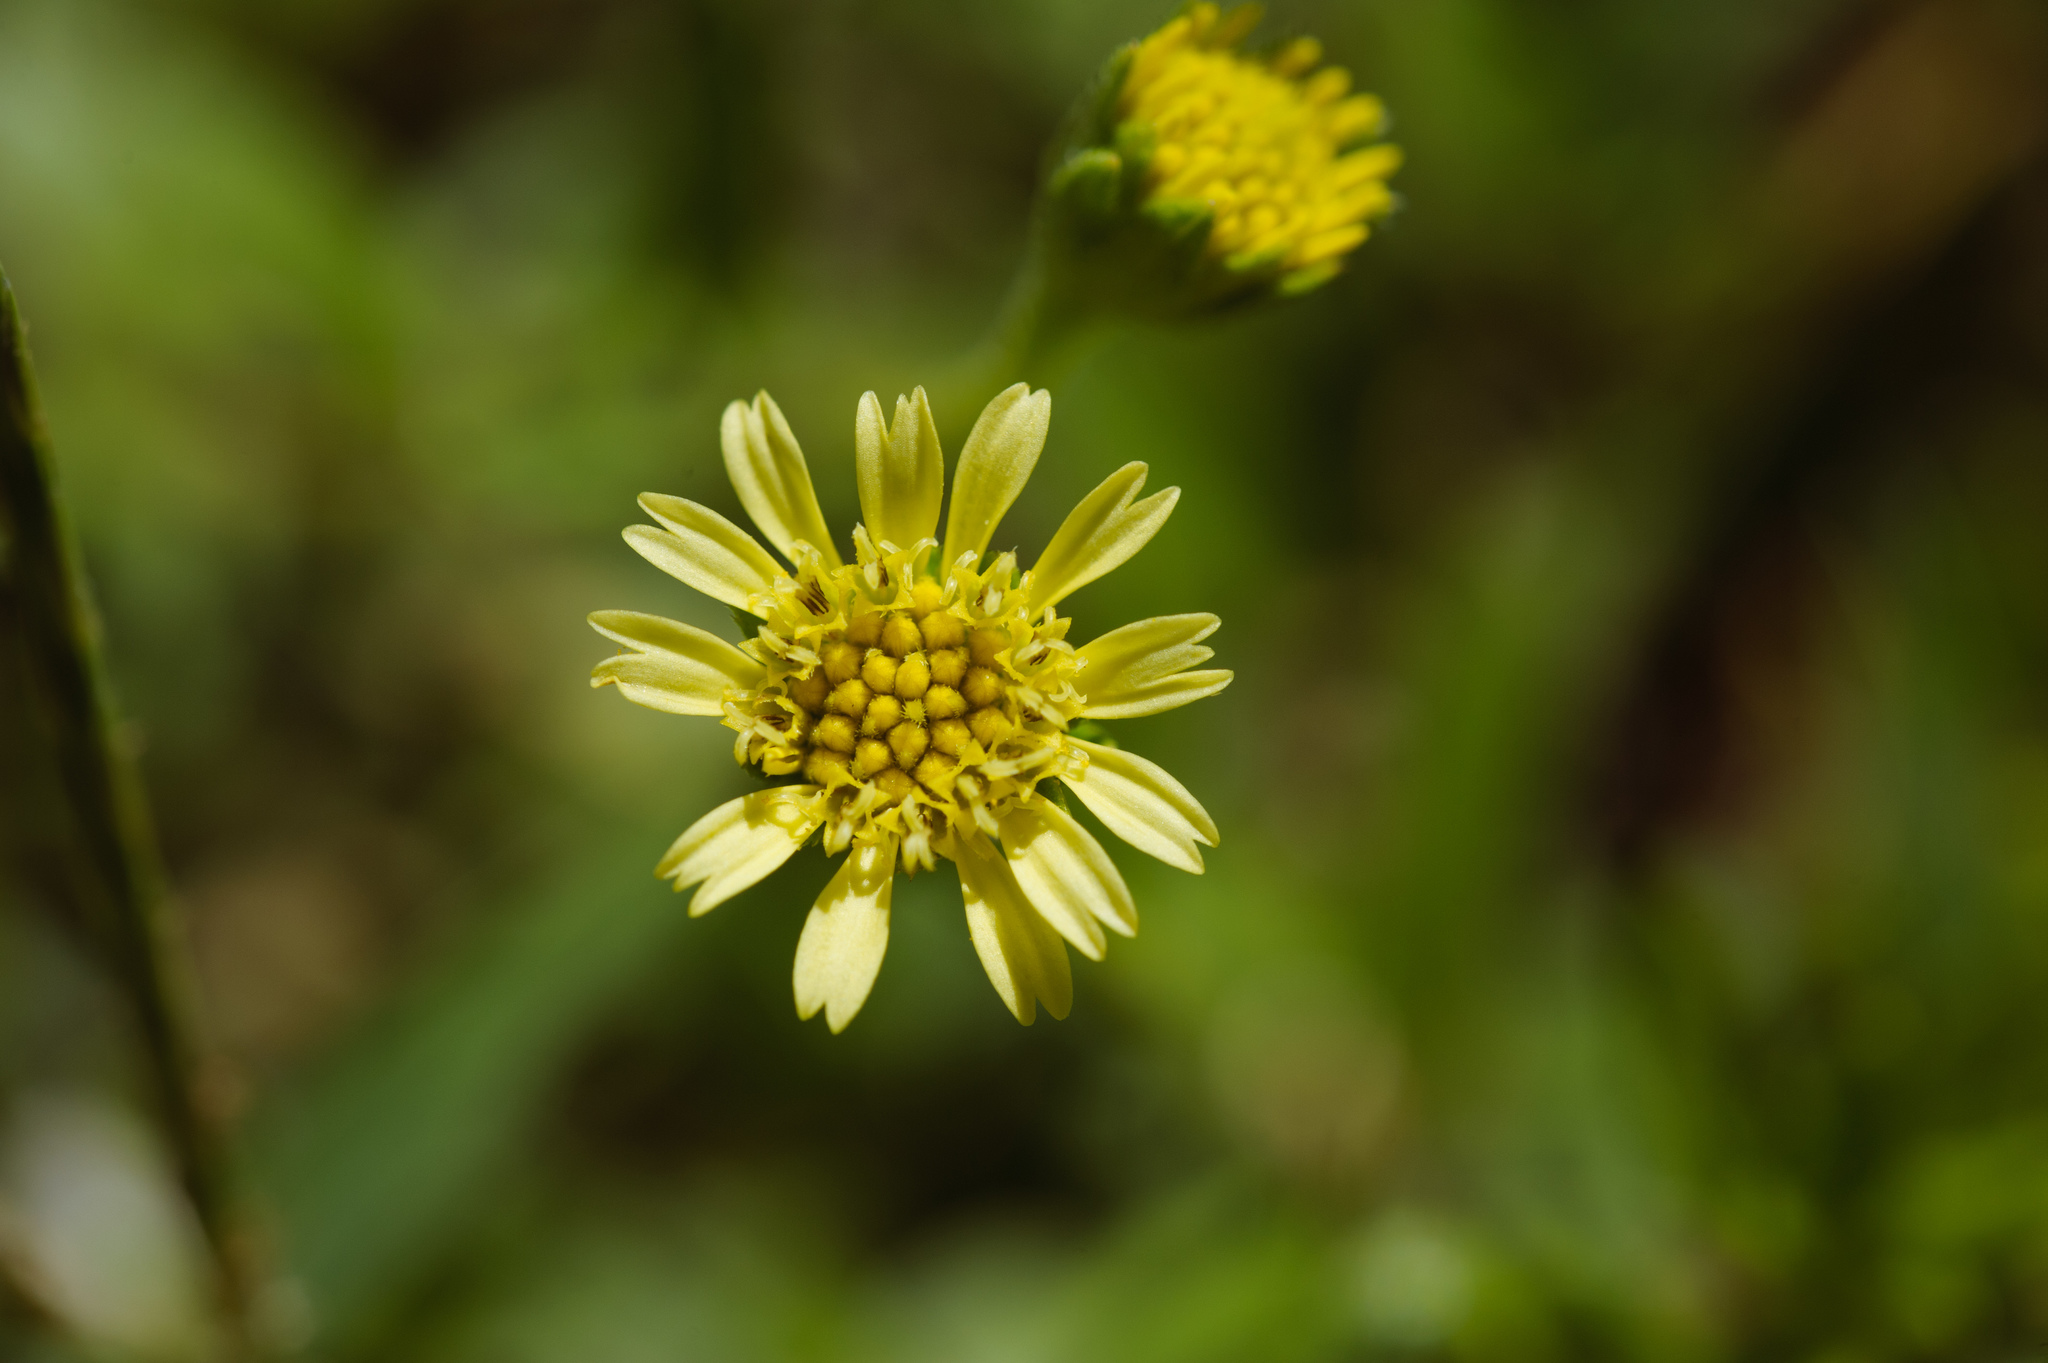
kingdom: Plantae
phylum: Tracheophyta
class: Magnoliopsida
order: Asterales
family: Asteraceae
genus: Melanthera
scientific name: Melanthera prostrata
